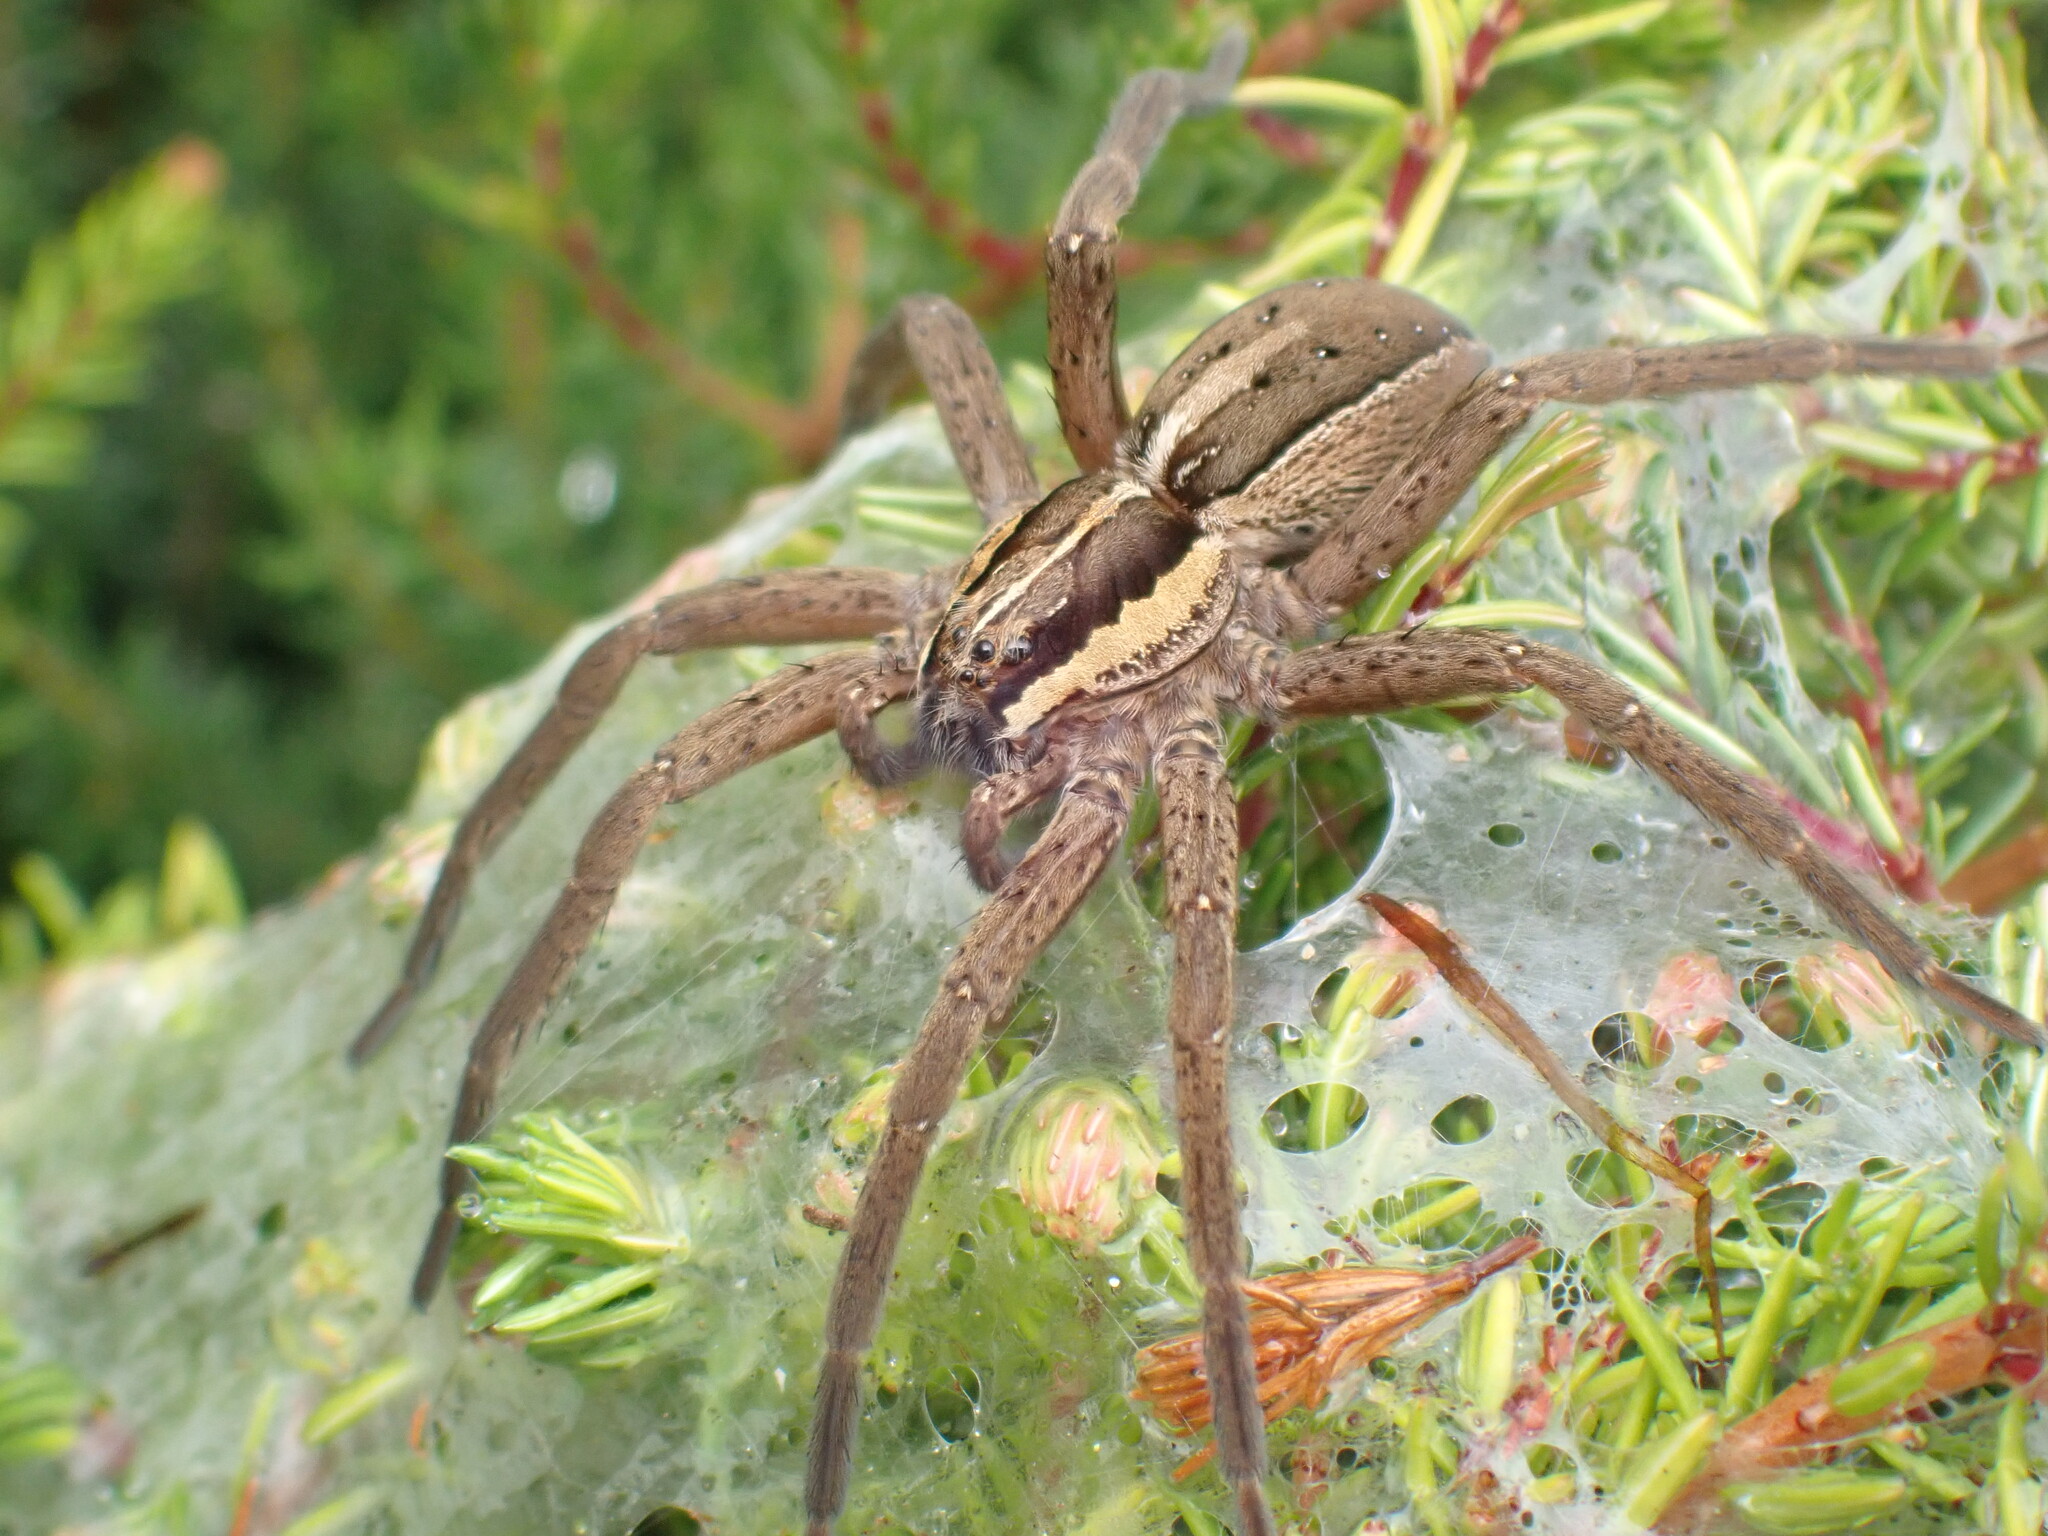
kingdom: Animalia
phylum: Arthropoda
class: Arachnida
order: Araneae
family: Pisauridae
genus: Dolomedes
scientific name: Dolomedes minor
